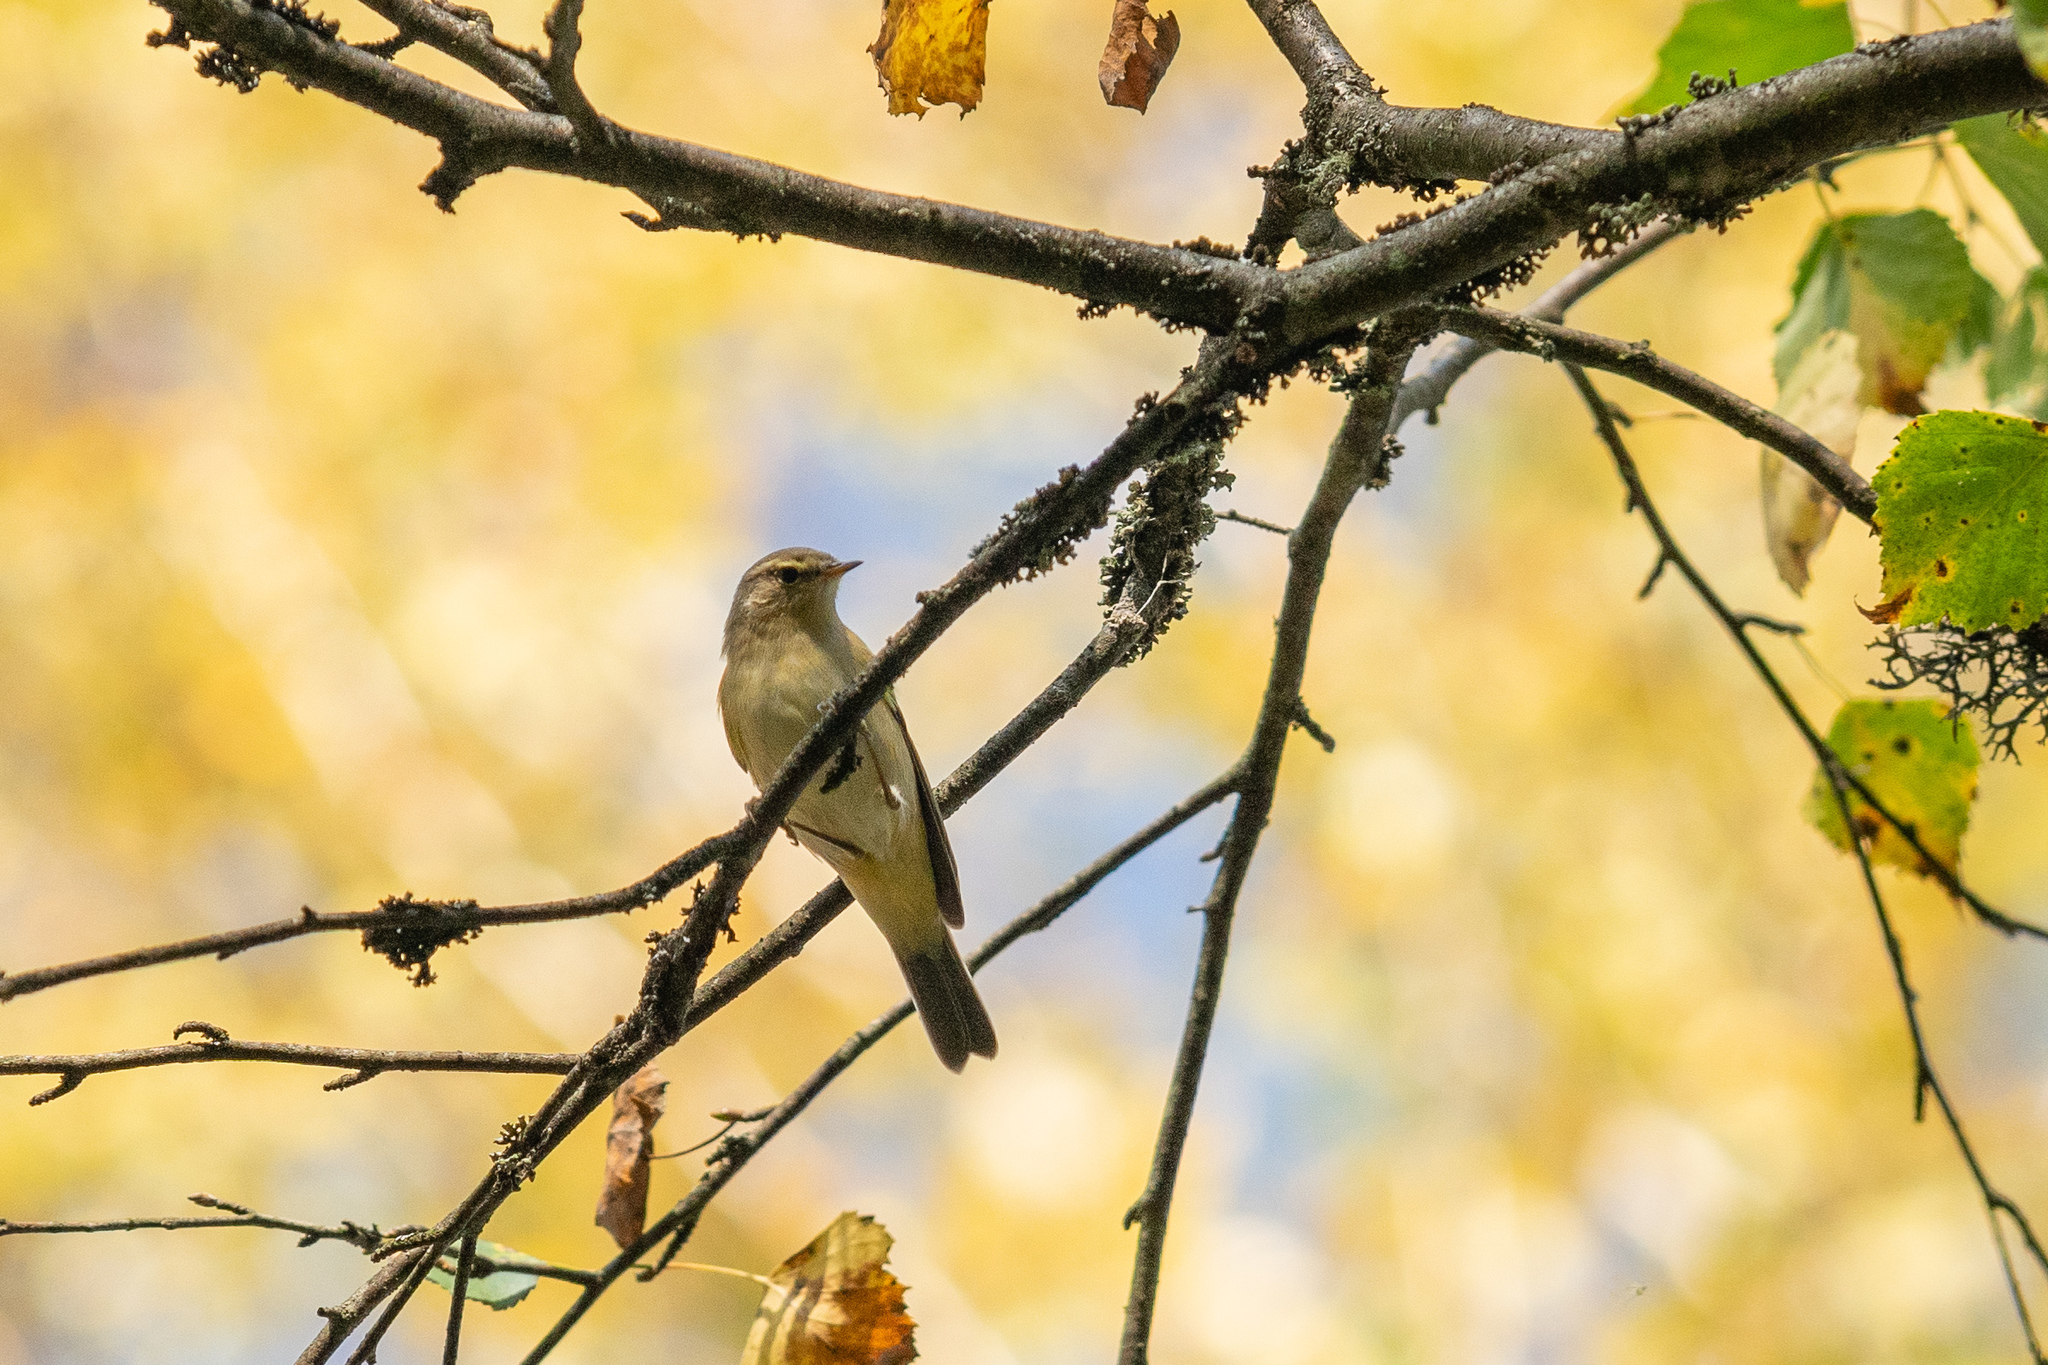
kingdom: Animalia
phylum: Chordata
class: Aves
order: Passeriformes
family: Phylloscopidae
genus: Phylloscopus
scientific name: Phylloscopus trochilus
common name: Willow warbler
